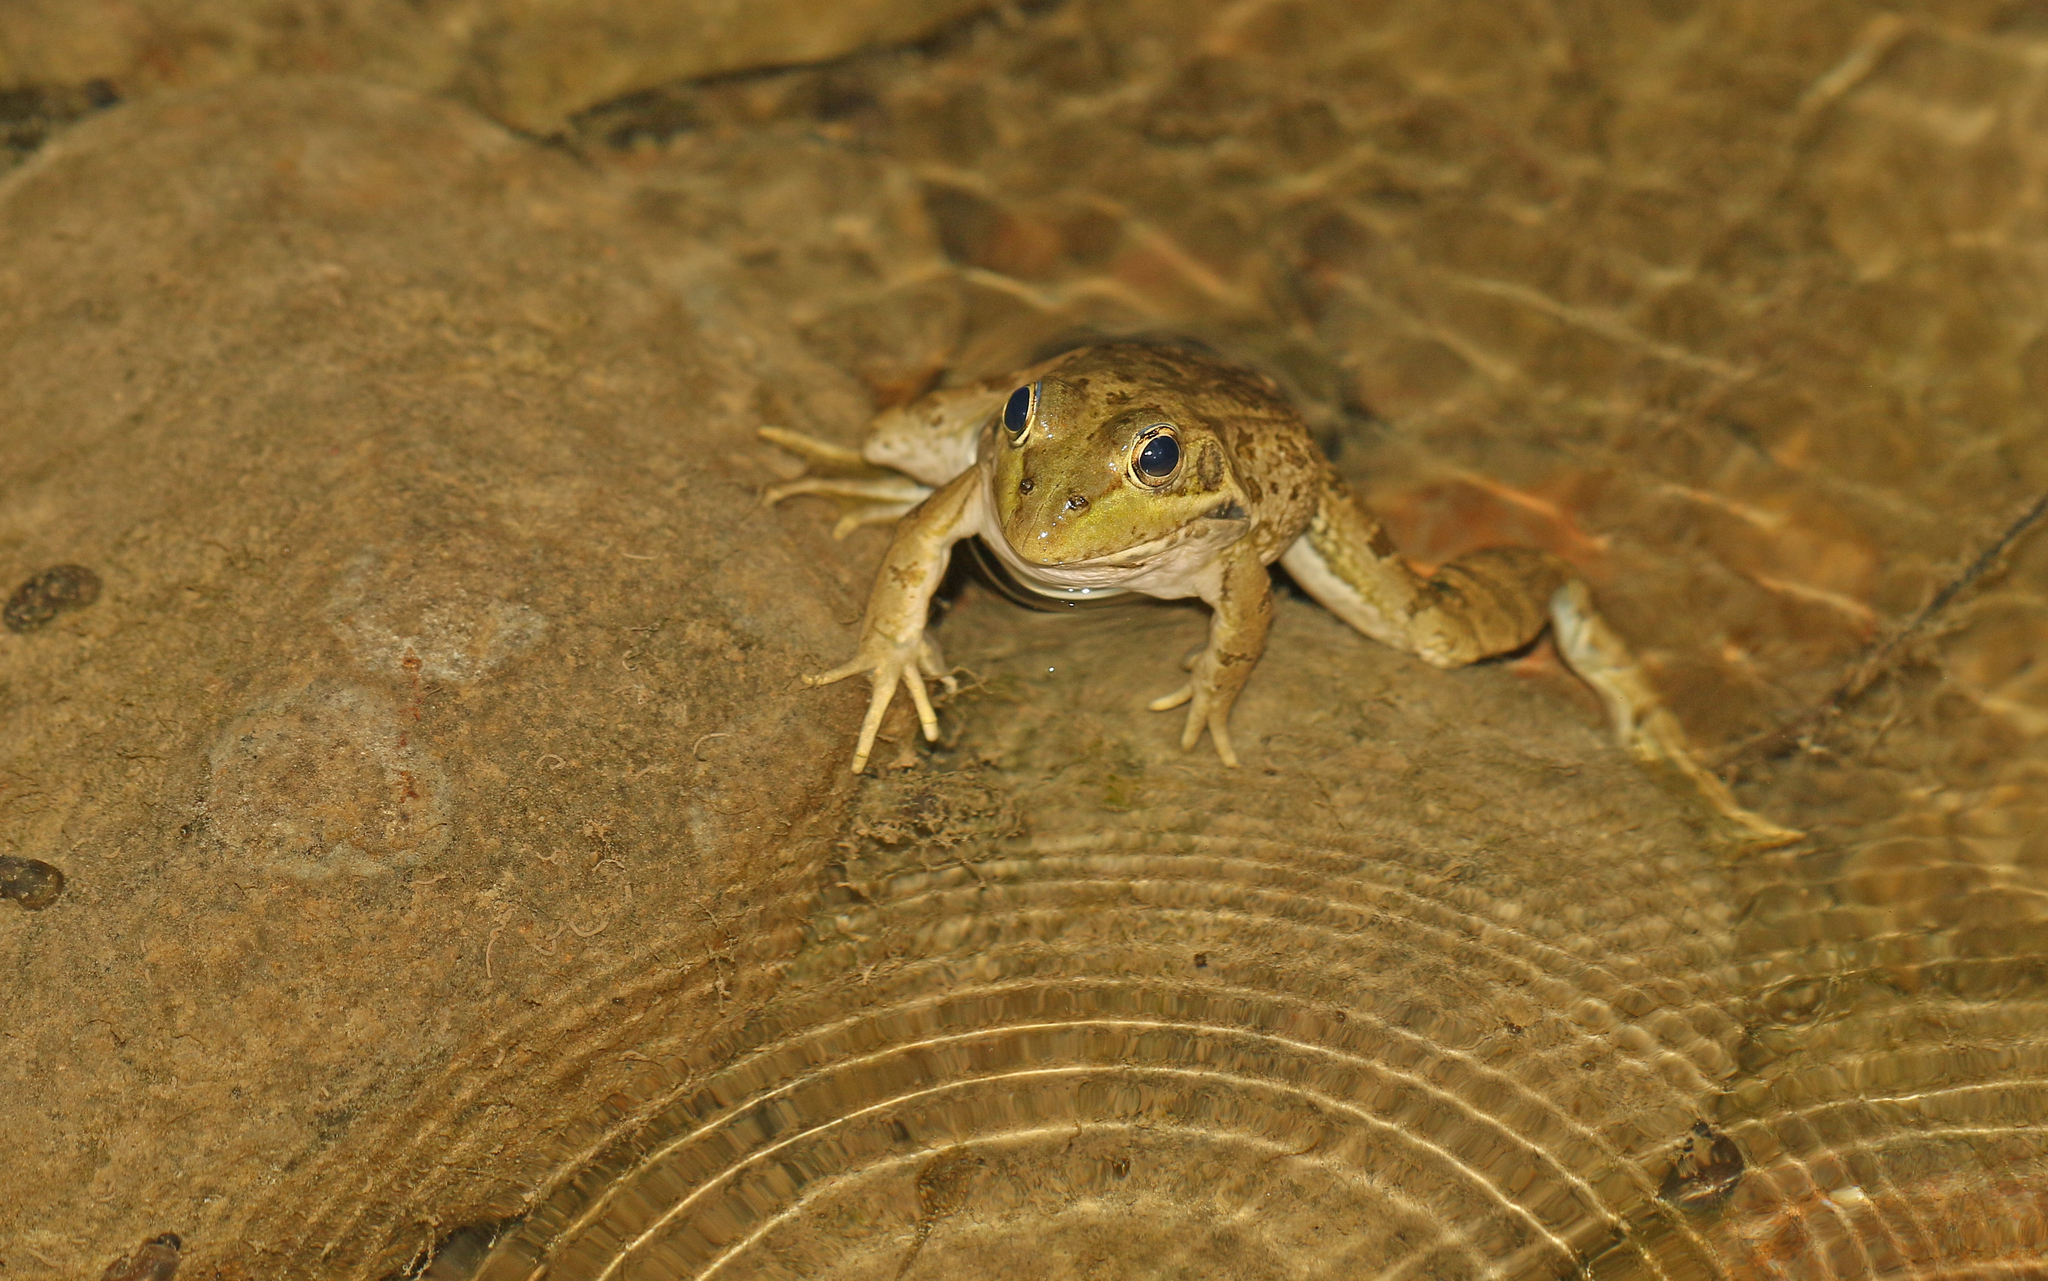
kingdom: Animalia
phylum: Chordata
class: Amphibia
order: Anura
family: Ranidae
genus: Pelophylax
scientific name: Pelophylax perezi
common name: Perez's frog
